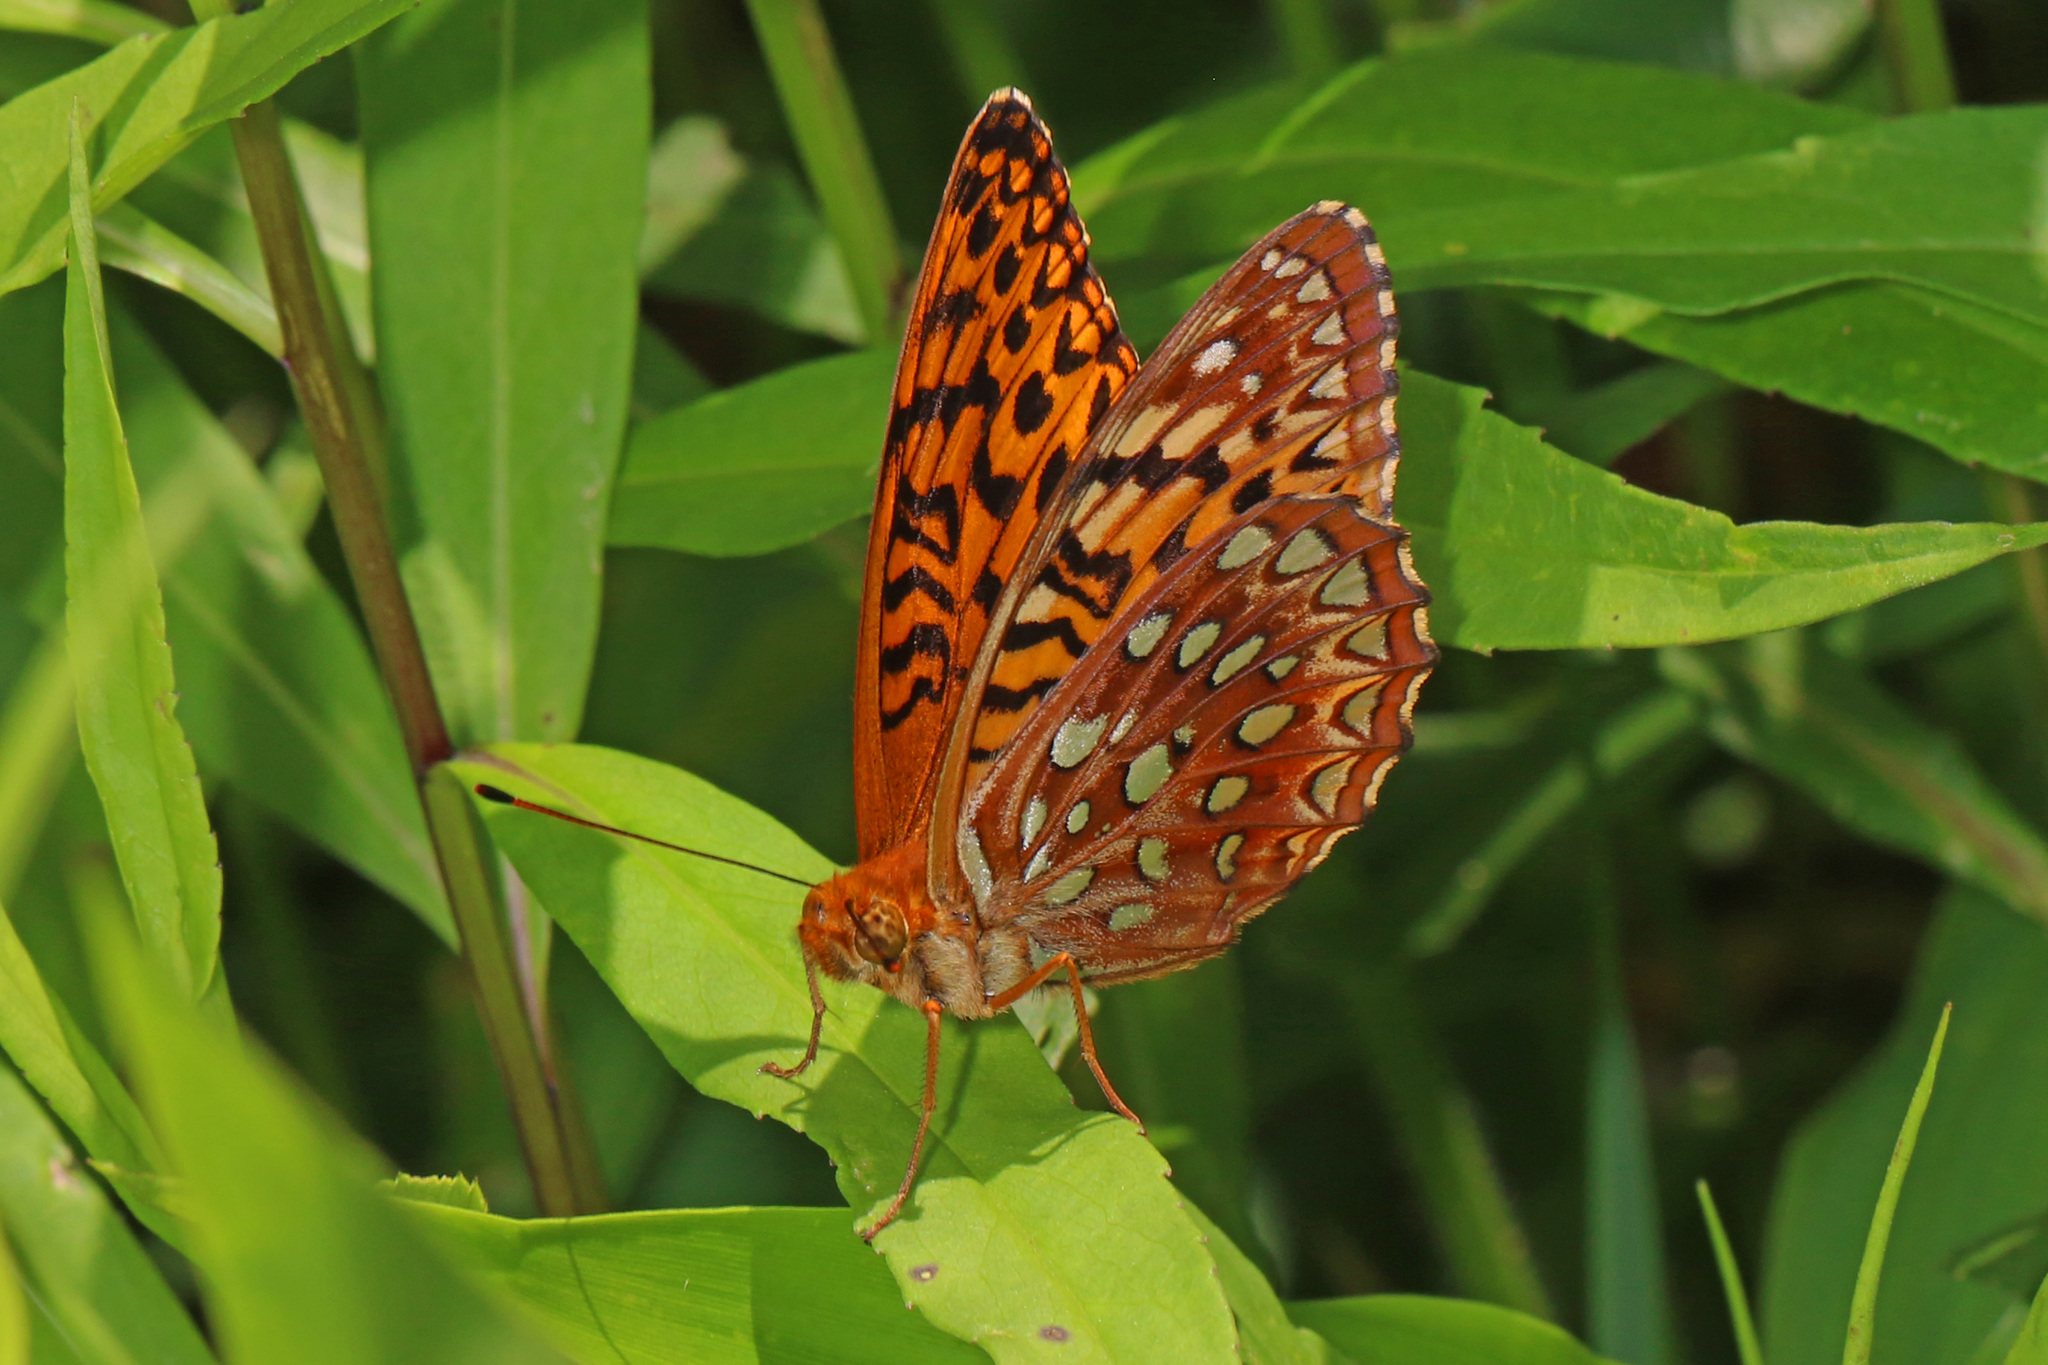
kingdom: Animalia
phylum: Arthropoda
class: Insecta
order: Lepidoptera
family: Nymphalidae
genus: Speyeria
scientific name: Speyeria aphrodite
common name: Aphrodite friitllary
